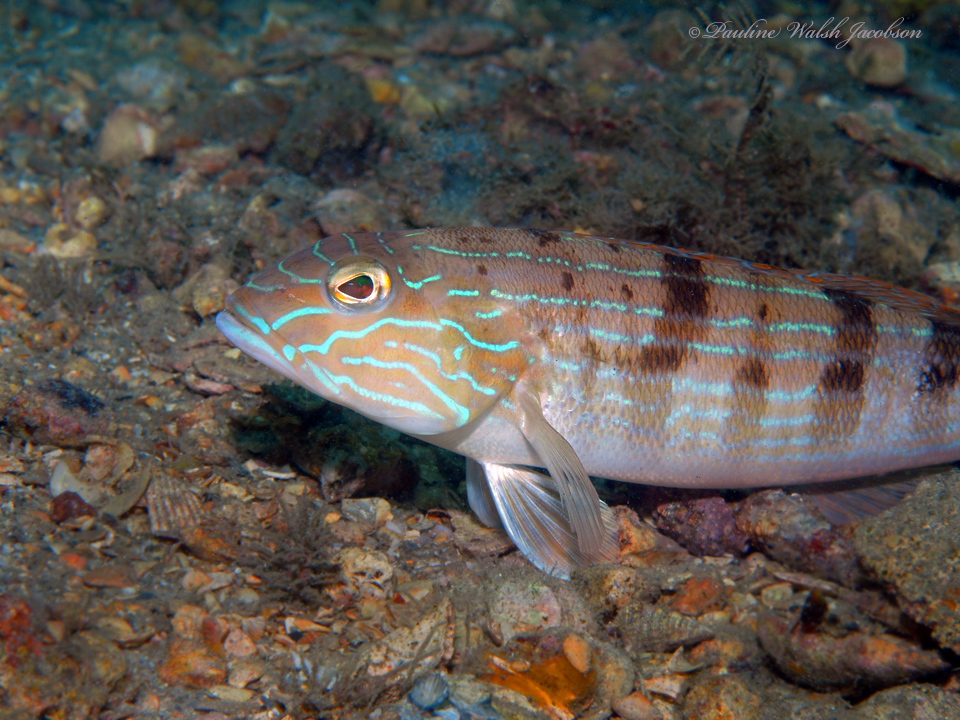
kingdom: Animalia
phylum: Chordata
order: Perciformes
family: Serranidae
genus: Diplectrum
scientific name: Diplectrum formosum
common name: Sand perch
